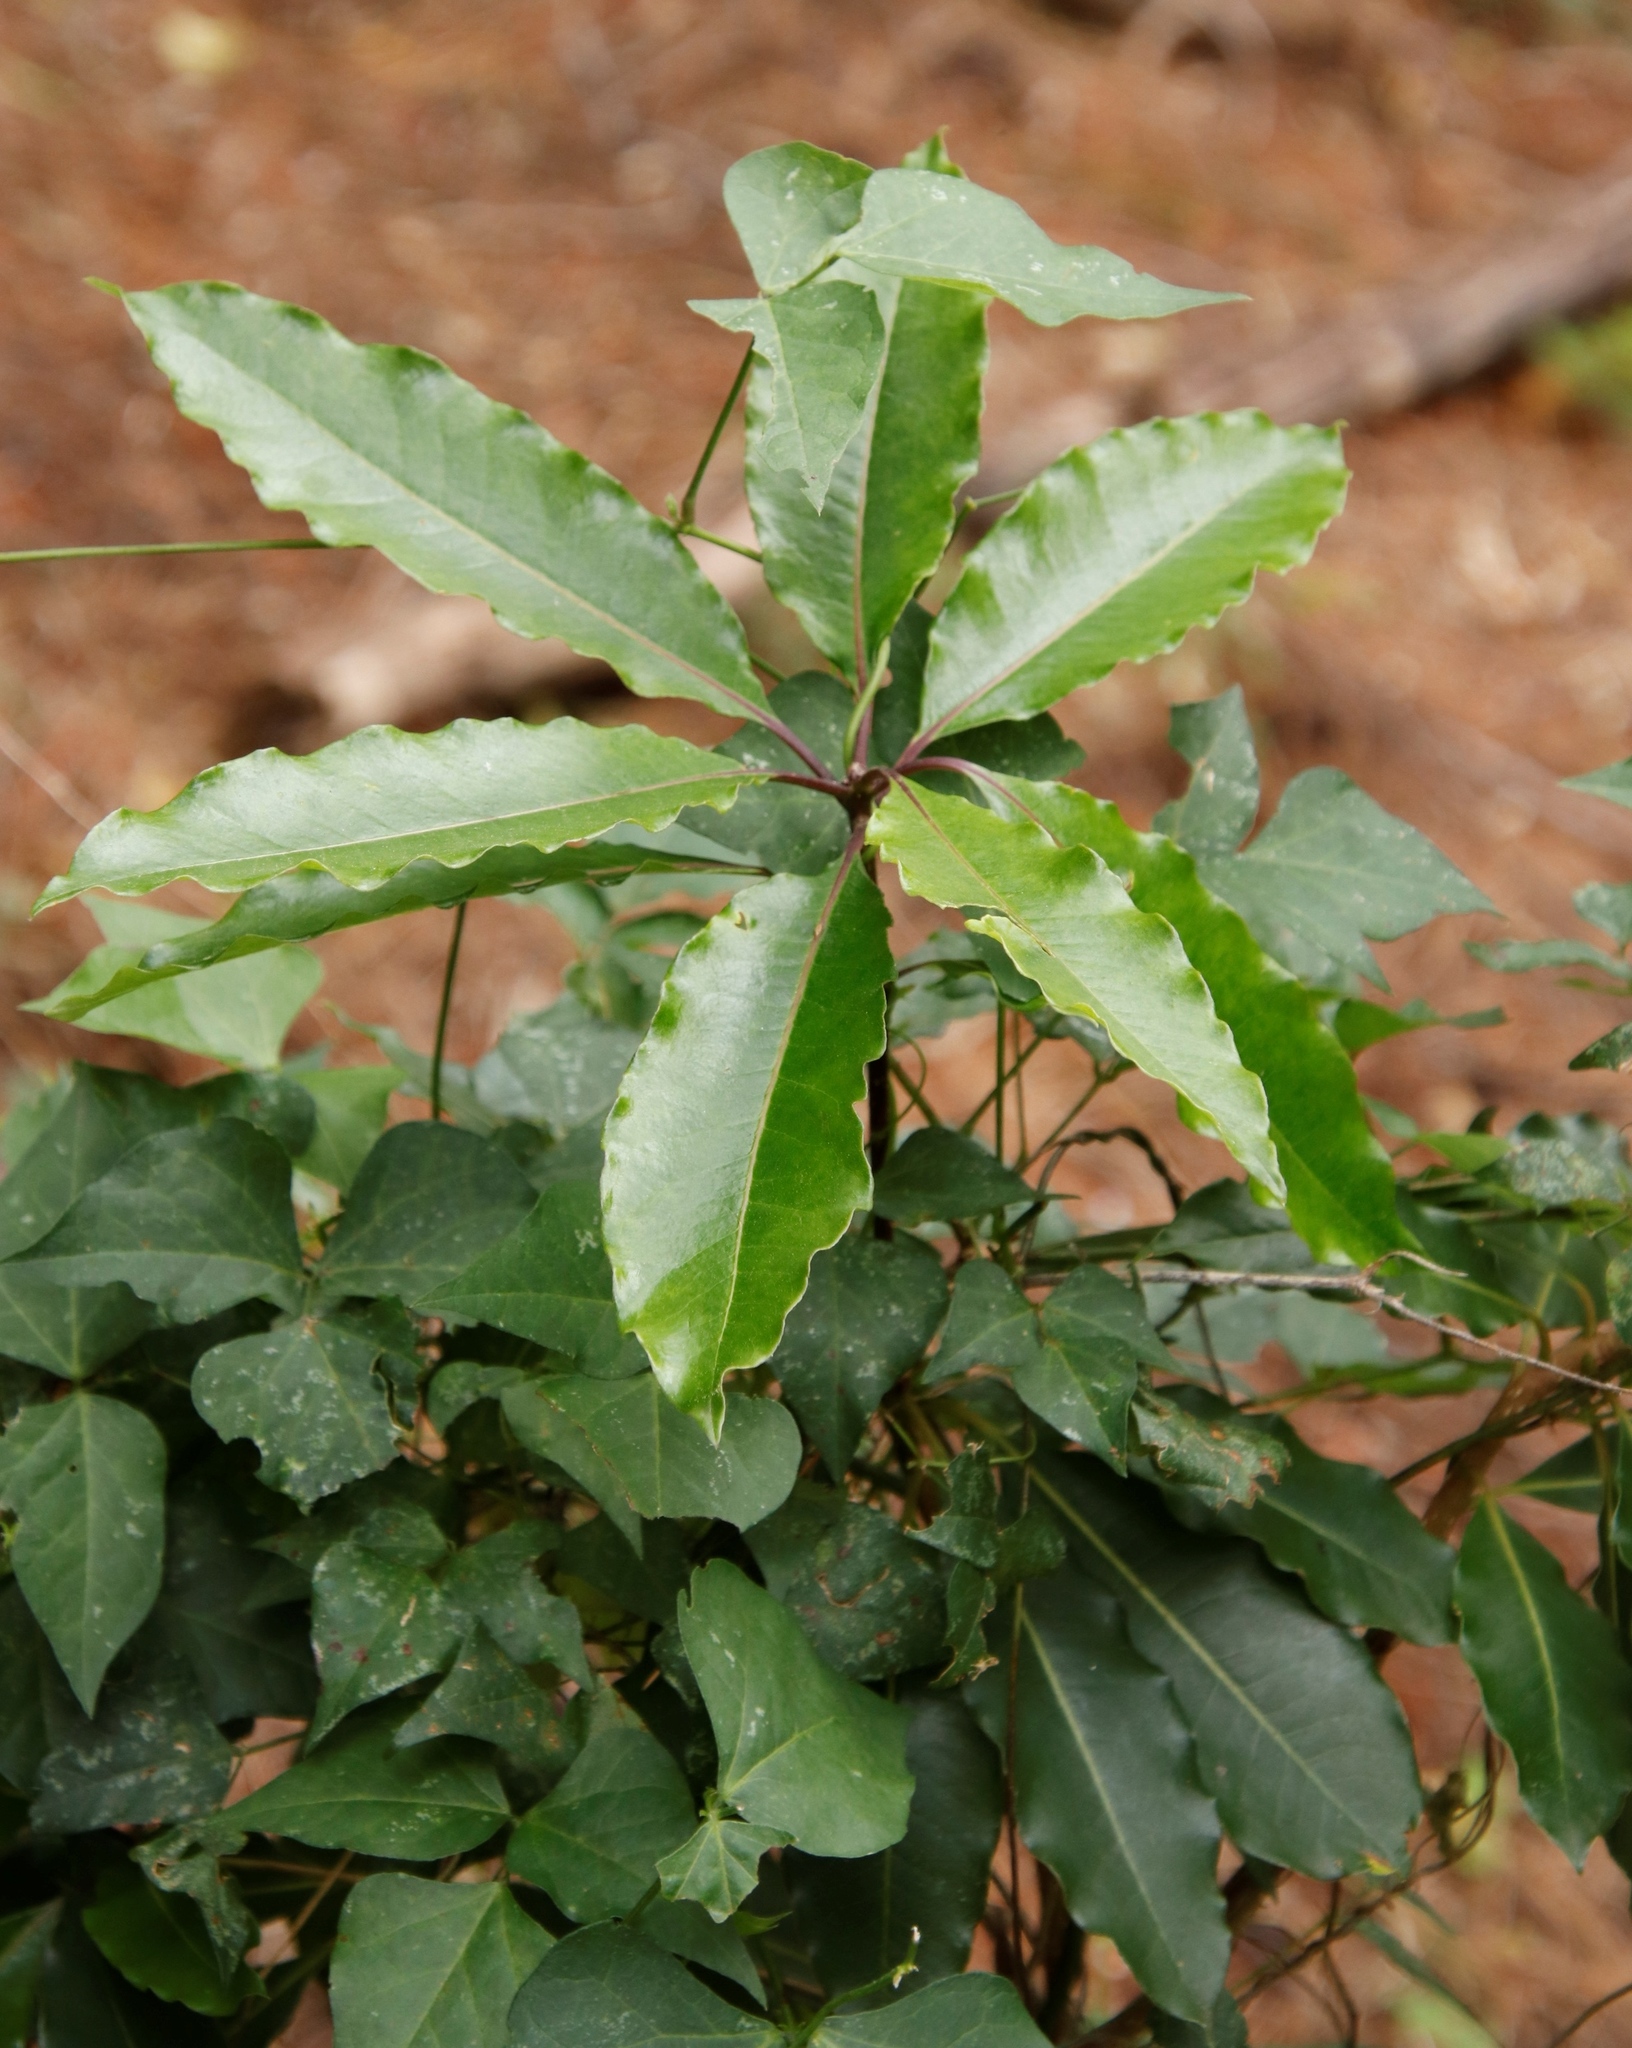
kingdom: Plantae
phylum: Tracheophyta
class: Magnoliopsida
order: Apiales
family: Pittosporaceae
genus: Pittosporum
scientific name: Pittosporum undulatum
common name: Australian cheesewood
